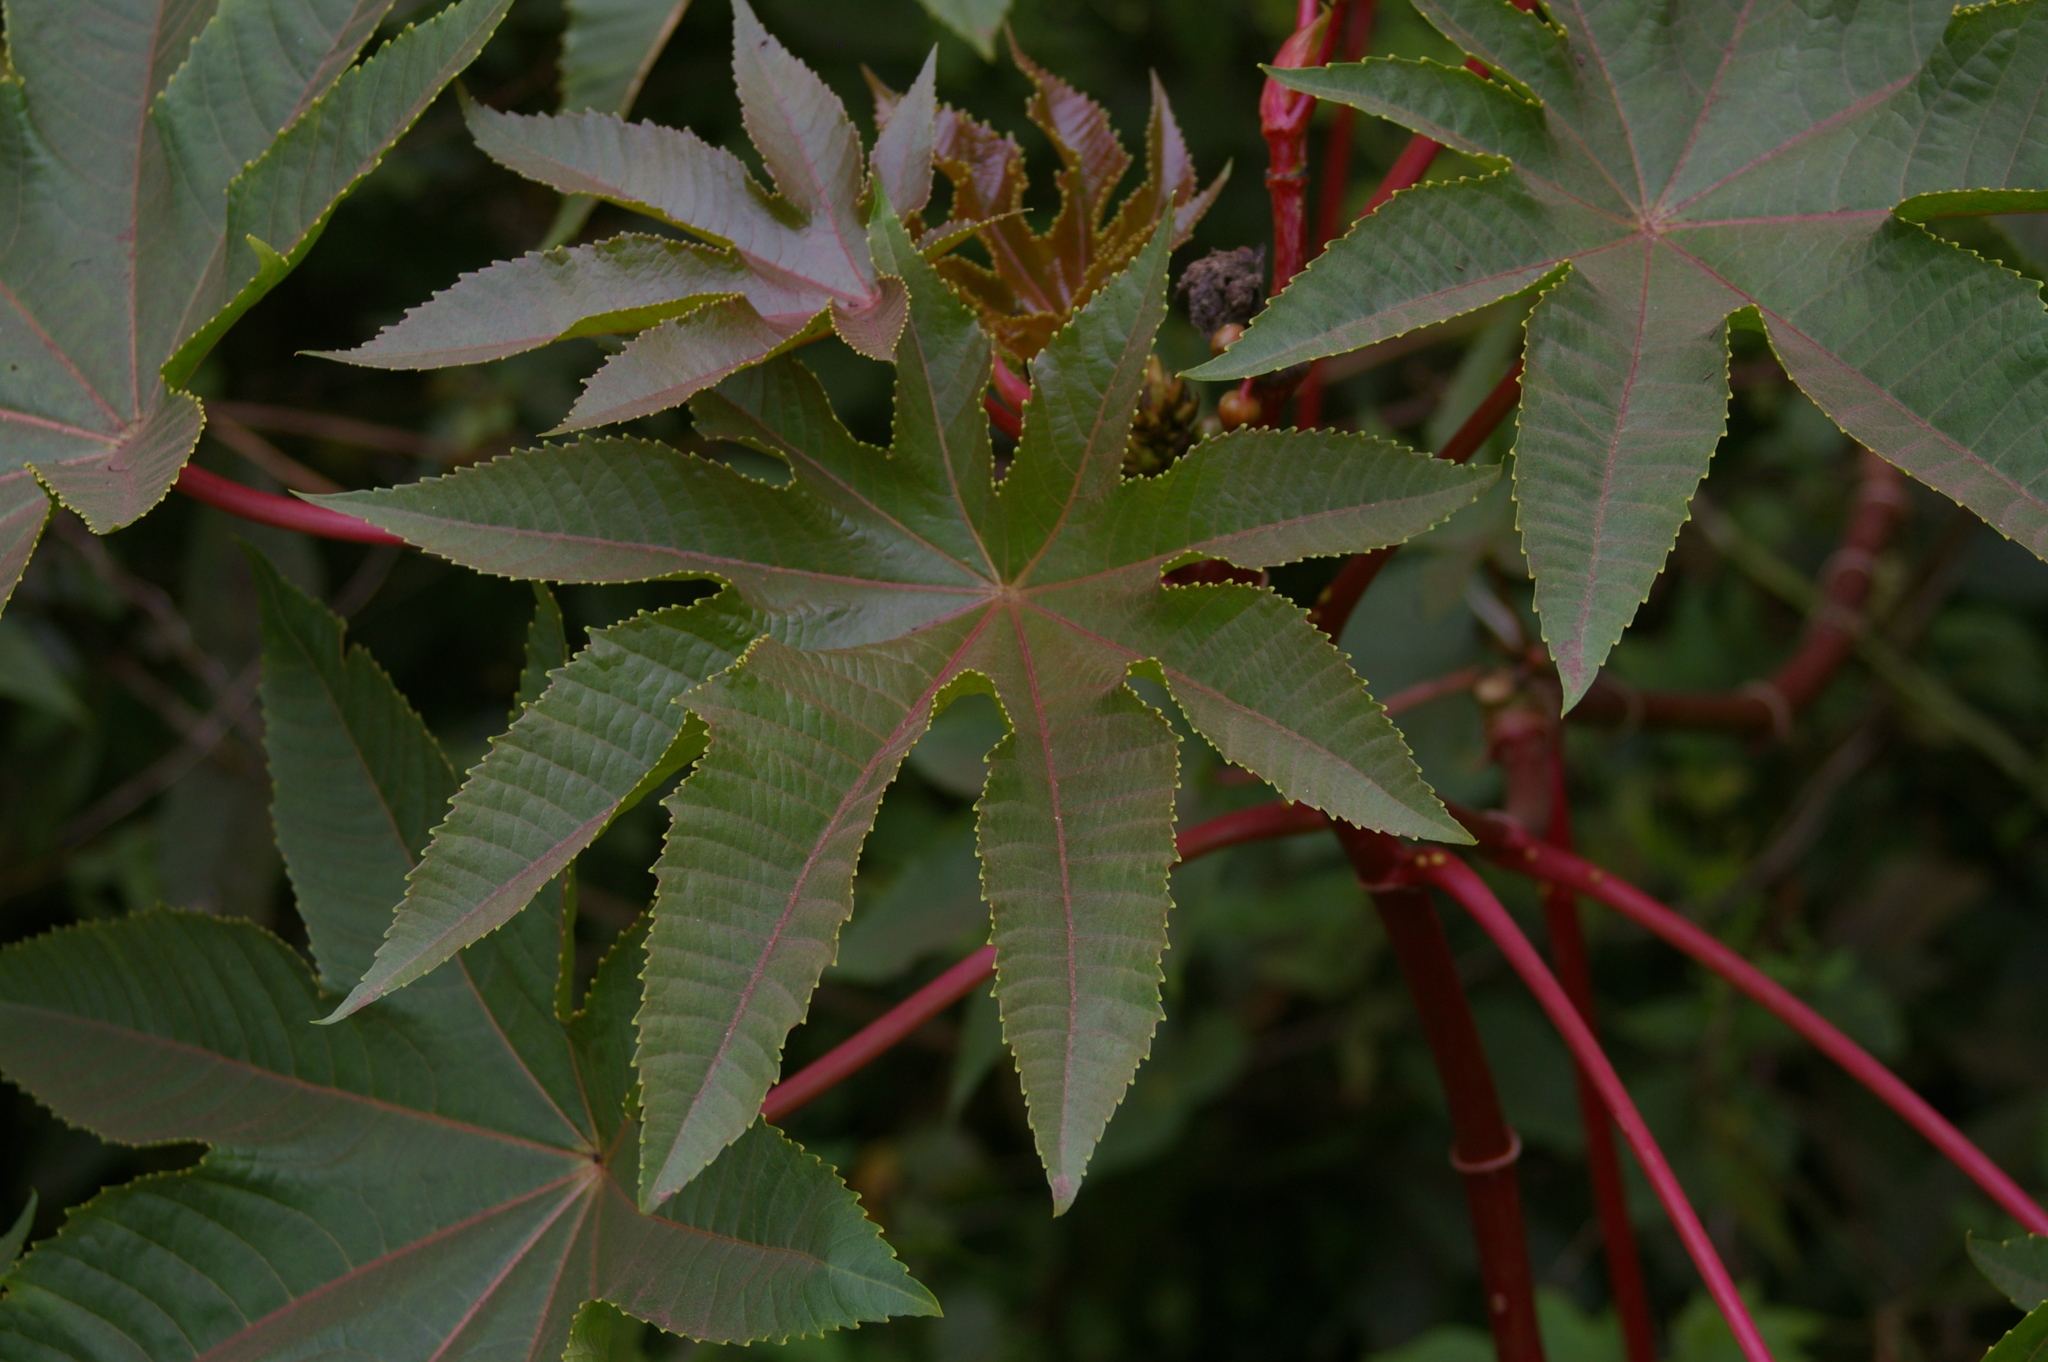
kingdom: Plantae
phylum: Tracheophyta
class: Magnoliopsida
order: Malpighiales
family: Euphorbiaceae
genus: Ricinus
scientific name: Ricinus communis
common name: Castor-oil-plant
